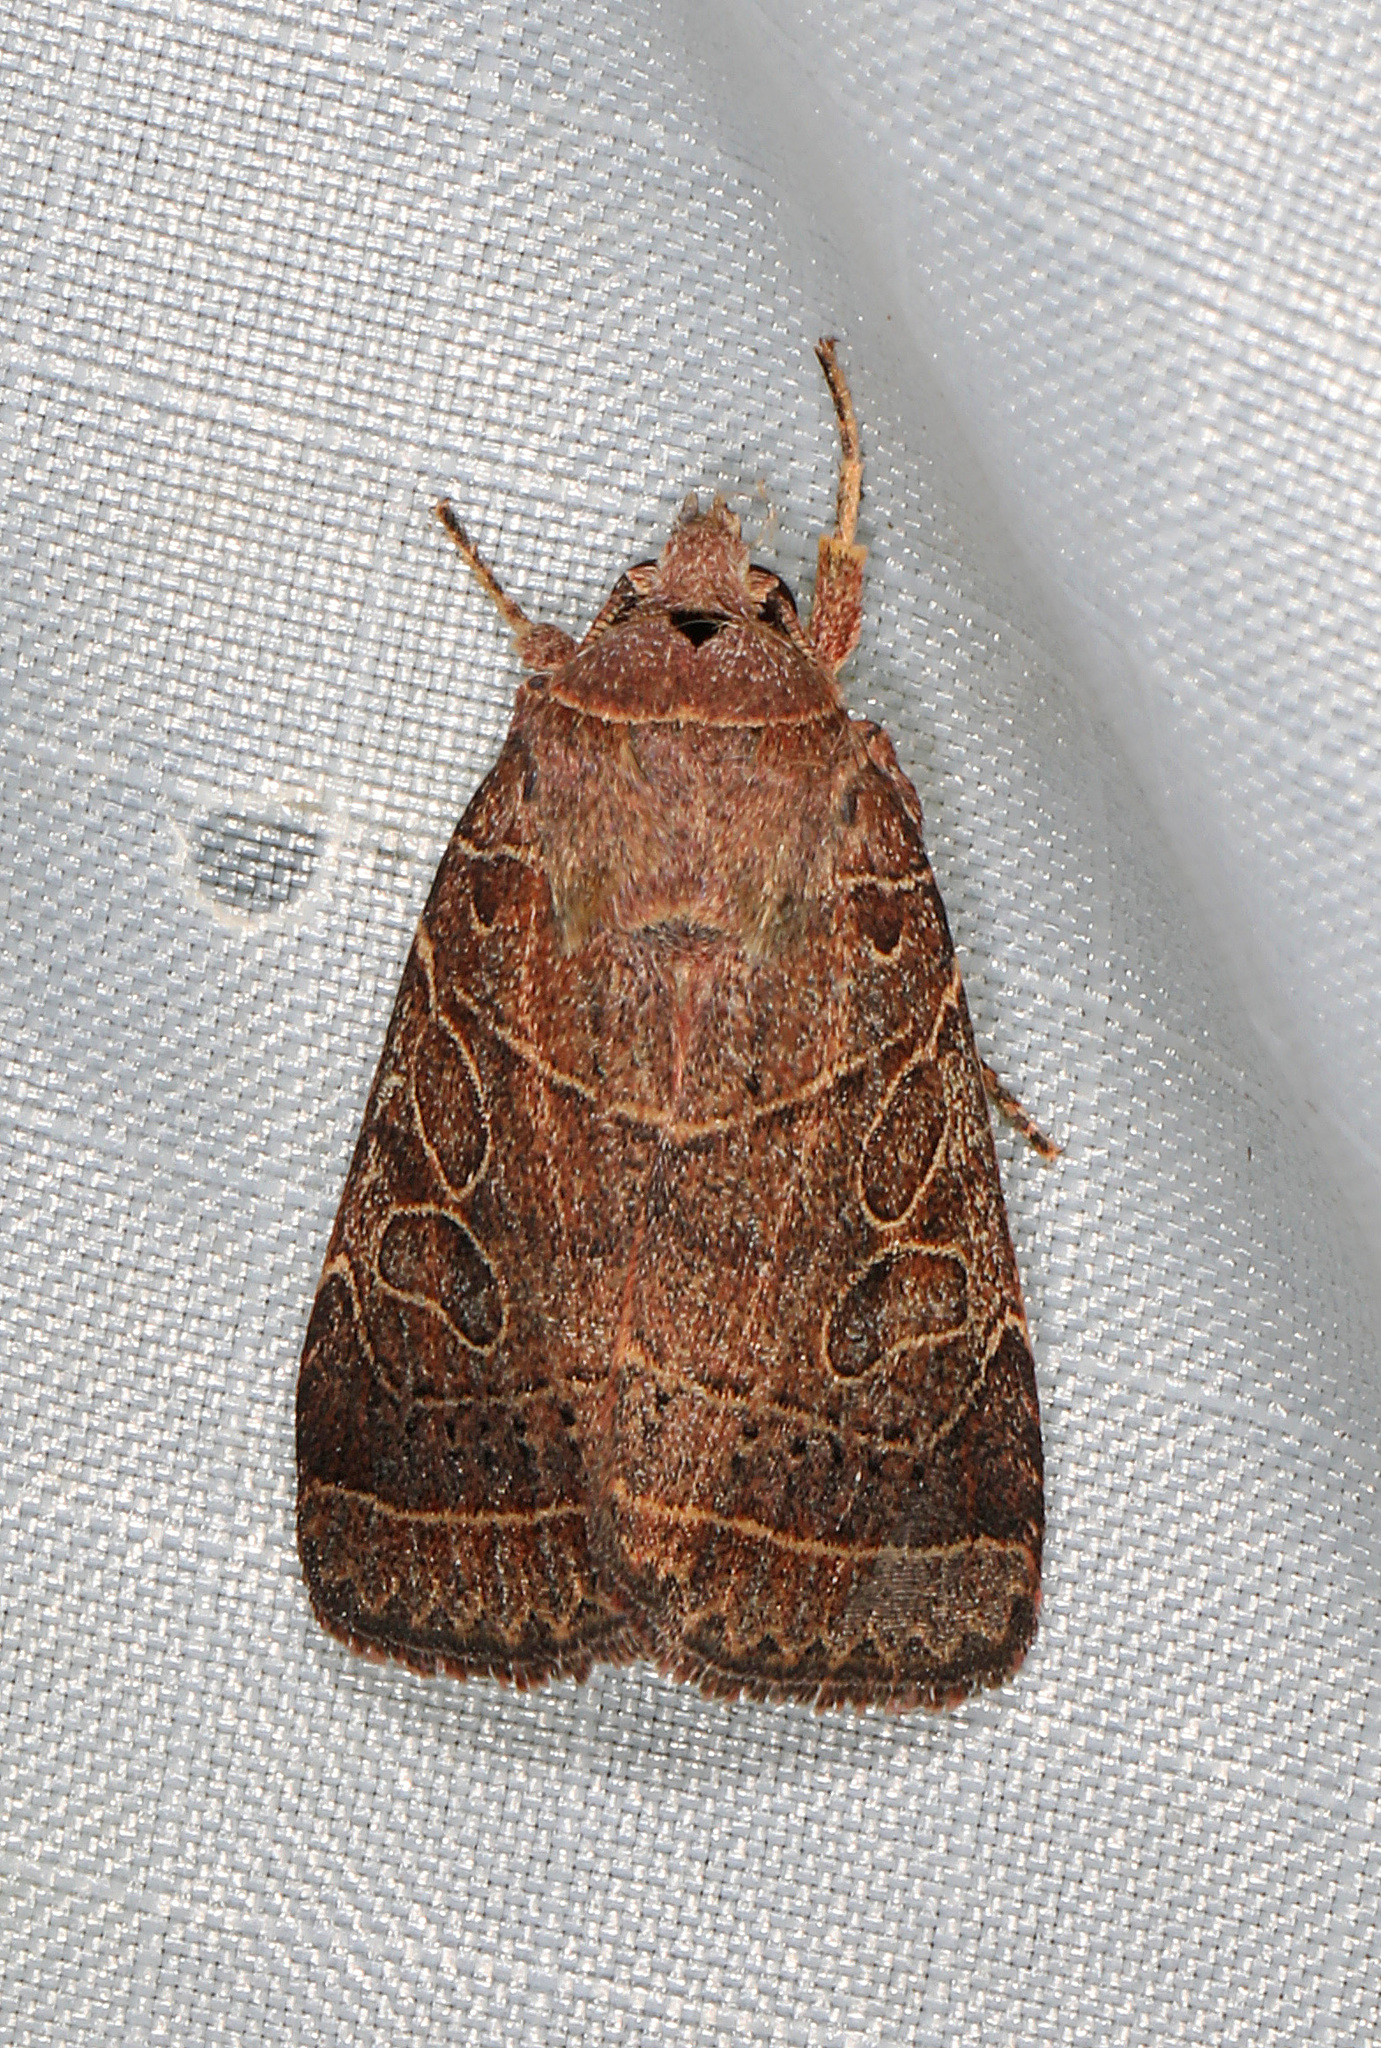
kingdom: Animalia
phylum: Arthropoda
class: Insecta
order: Lepidoptera
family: Noctuidae
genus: Orthodes
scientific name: Orthodes majuscula
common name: Rustic quaker
